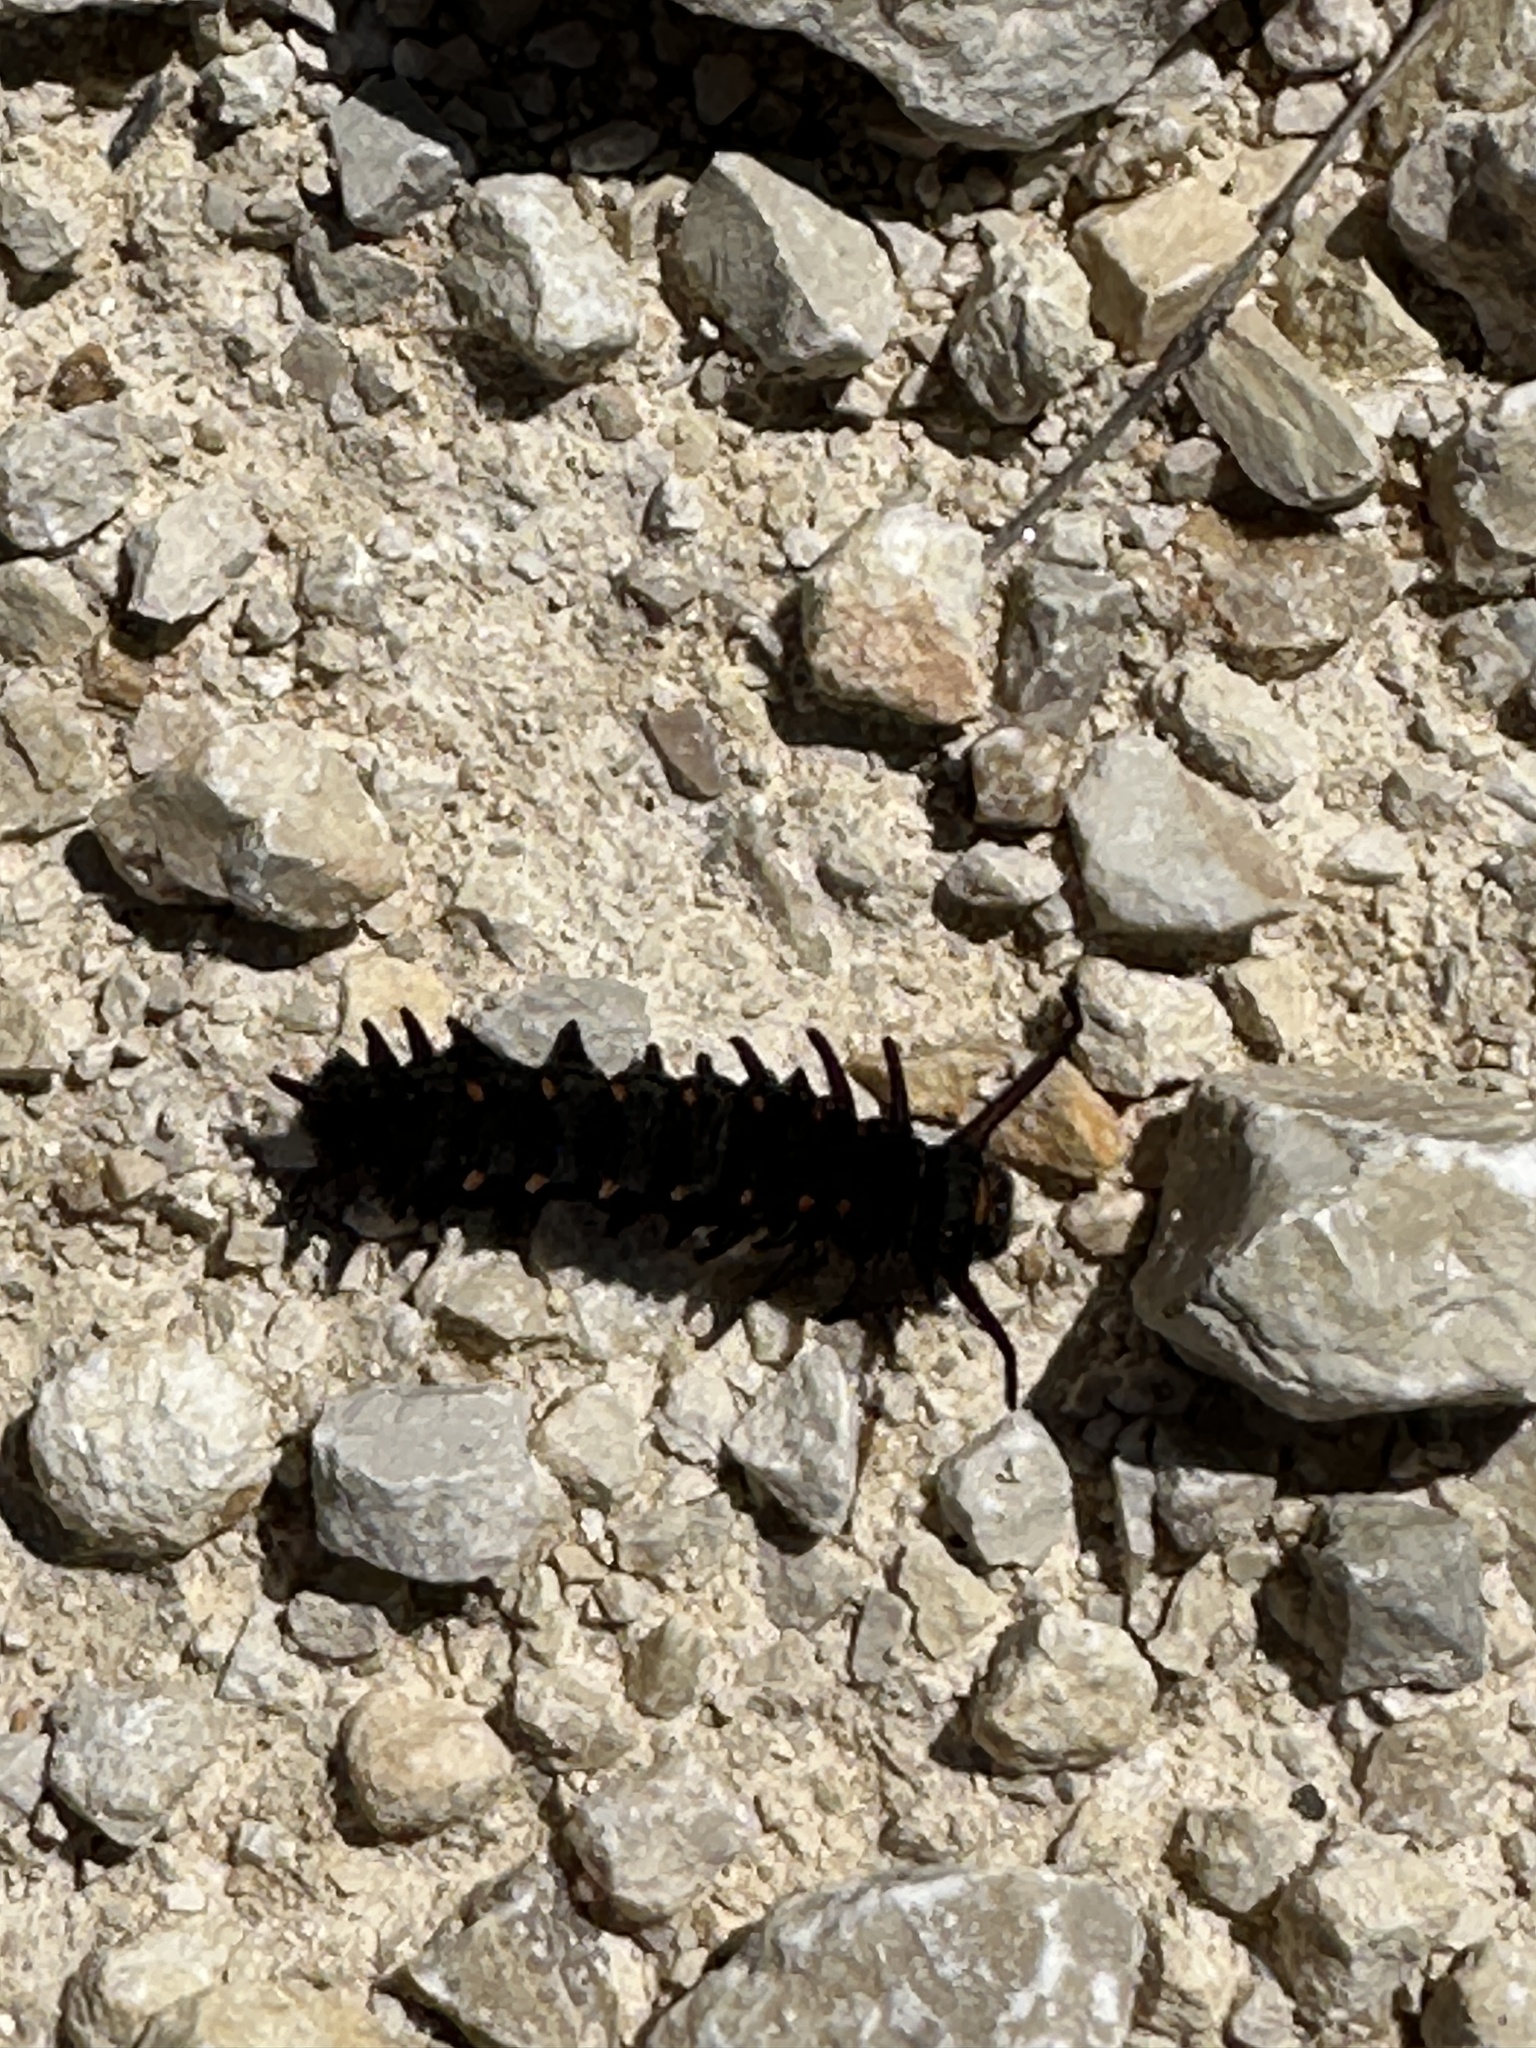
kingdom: Animalia
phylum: Arthropoda
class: Insecta
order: Lepidoptera
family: Papilionidae
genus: Battus
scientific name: Battus philenor
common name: Pipevine swallowtail
